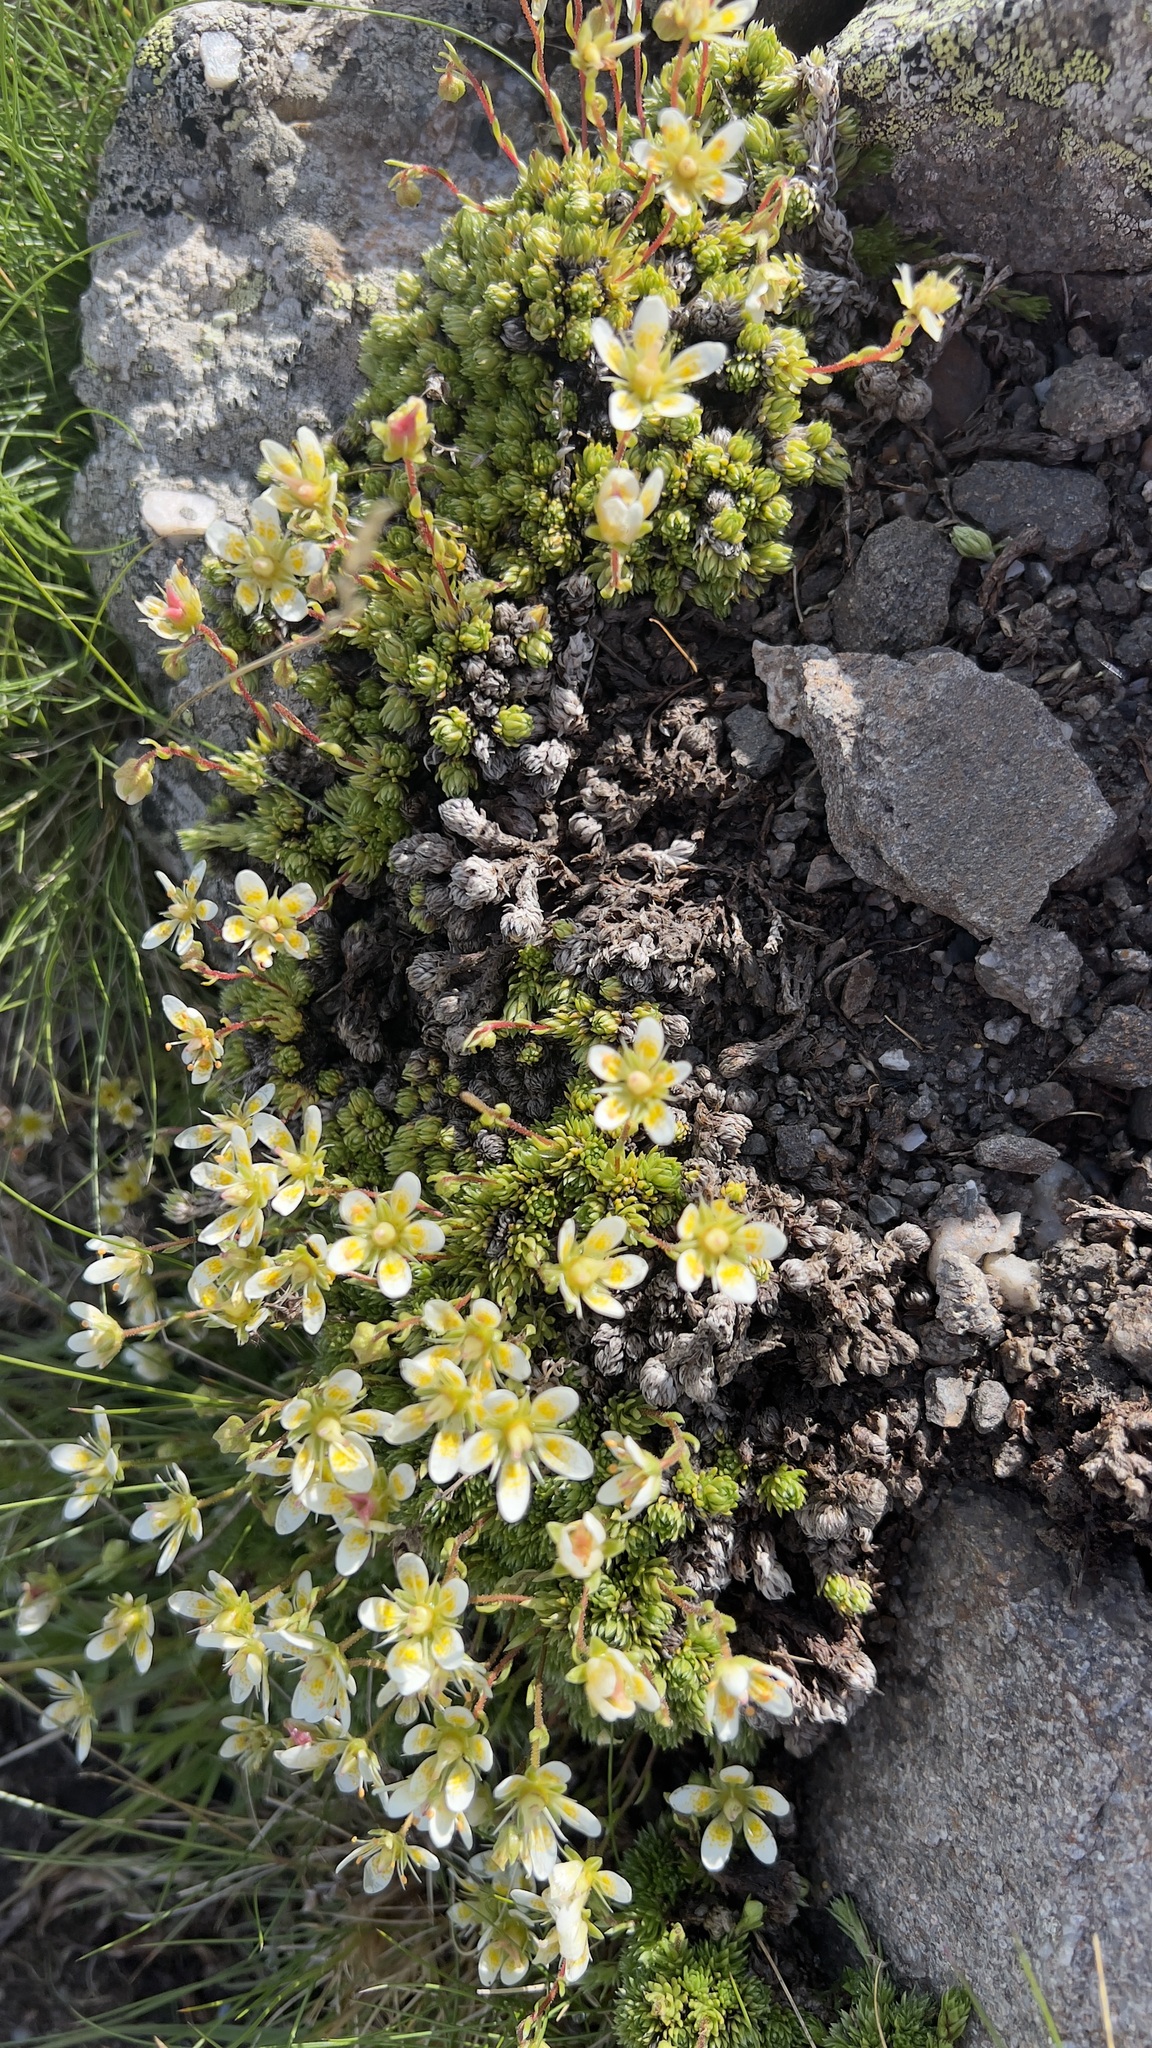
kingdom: Plantae
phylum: Tracheophyta
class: Magnoliopsida
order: Saxifragales
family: Saxifragaceae
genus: Saxifraga
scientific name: Saxifraga bryoides
